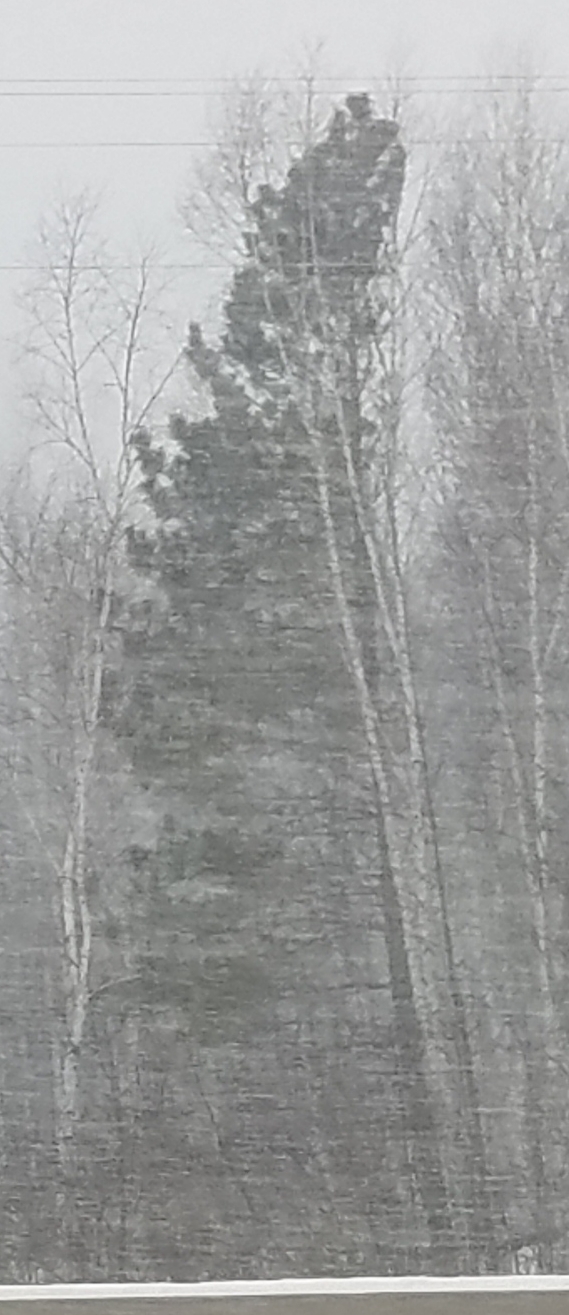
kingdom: Plantae
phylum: Tracheophyta
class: Pinopsida
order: Pinales
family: Pinaceae
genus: Pinus
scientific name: Pinus strobus
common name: Weymouth pine
